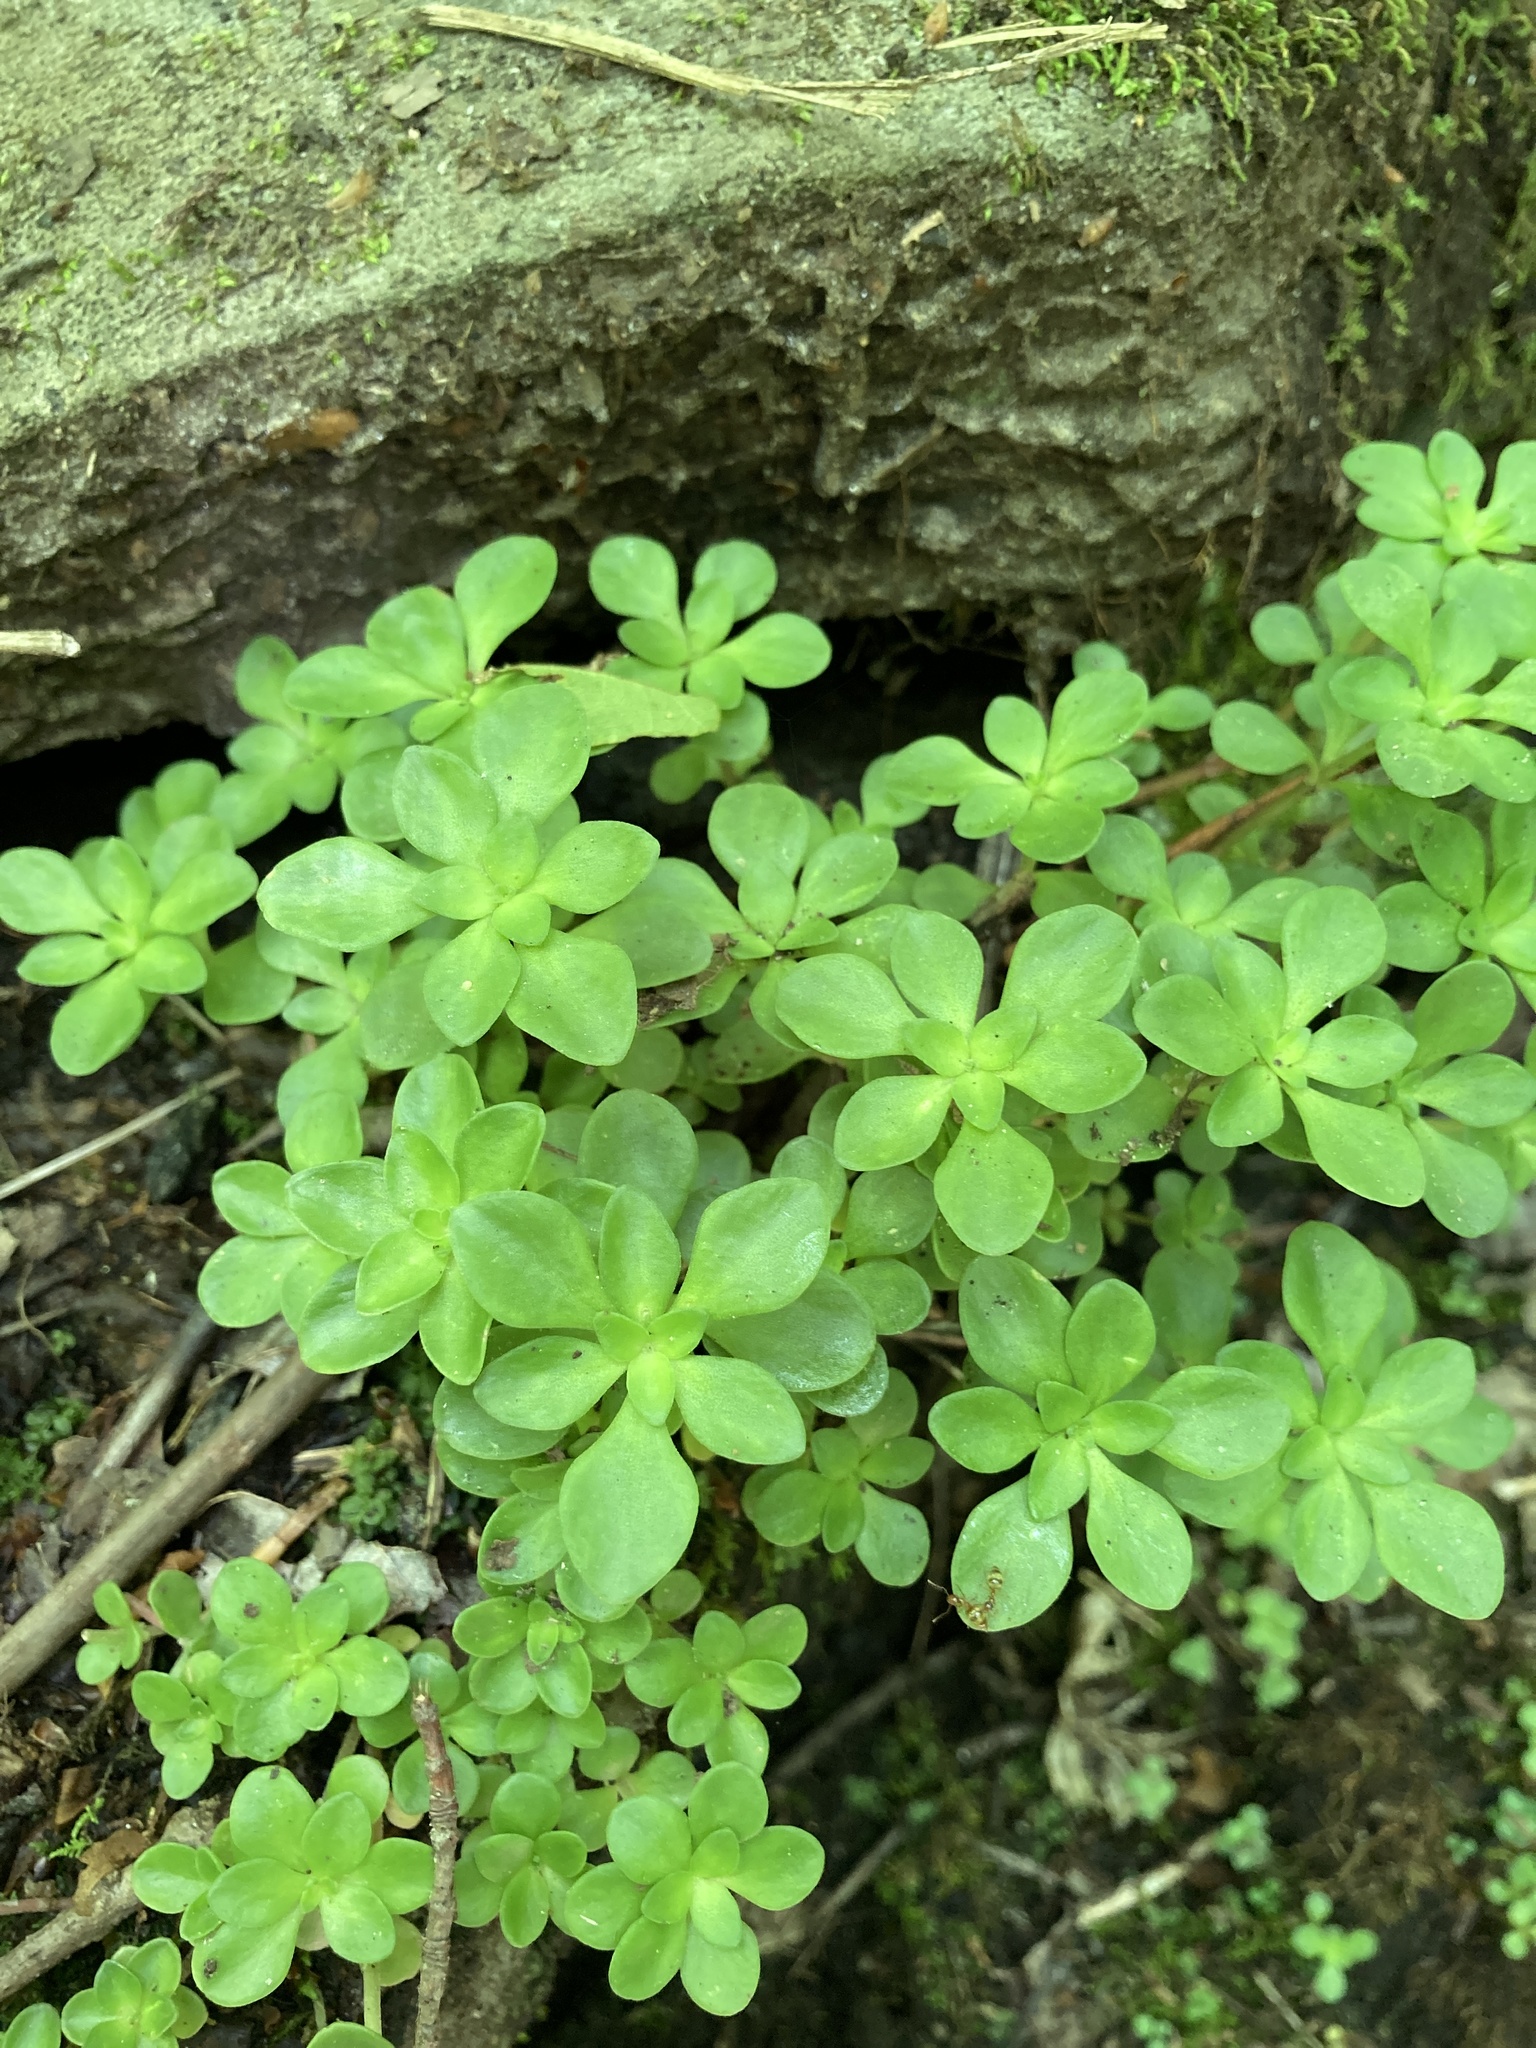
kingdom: Plantae
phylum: Tracheophyta
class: Magnoliopsida
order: Saxifragales
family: Crassulaceae
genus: Sedum
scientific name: Sedum ternatum
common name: Wild stonecrop
